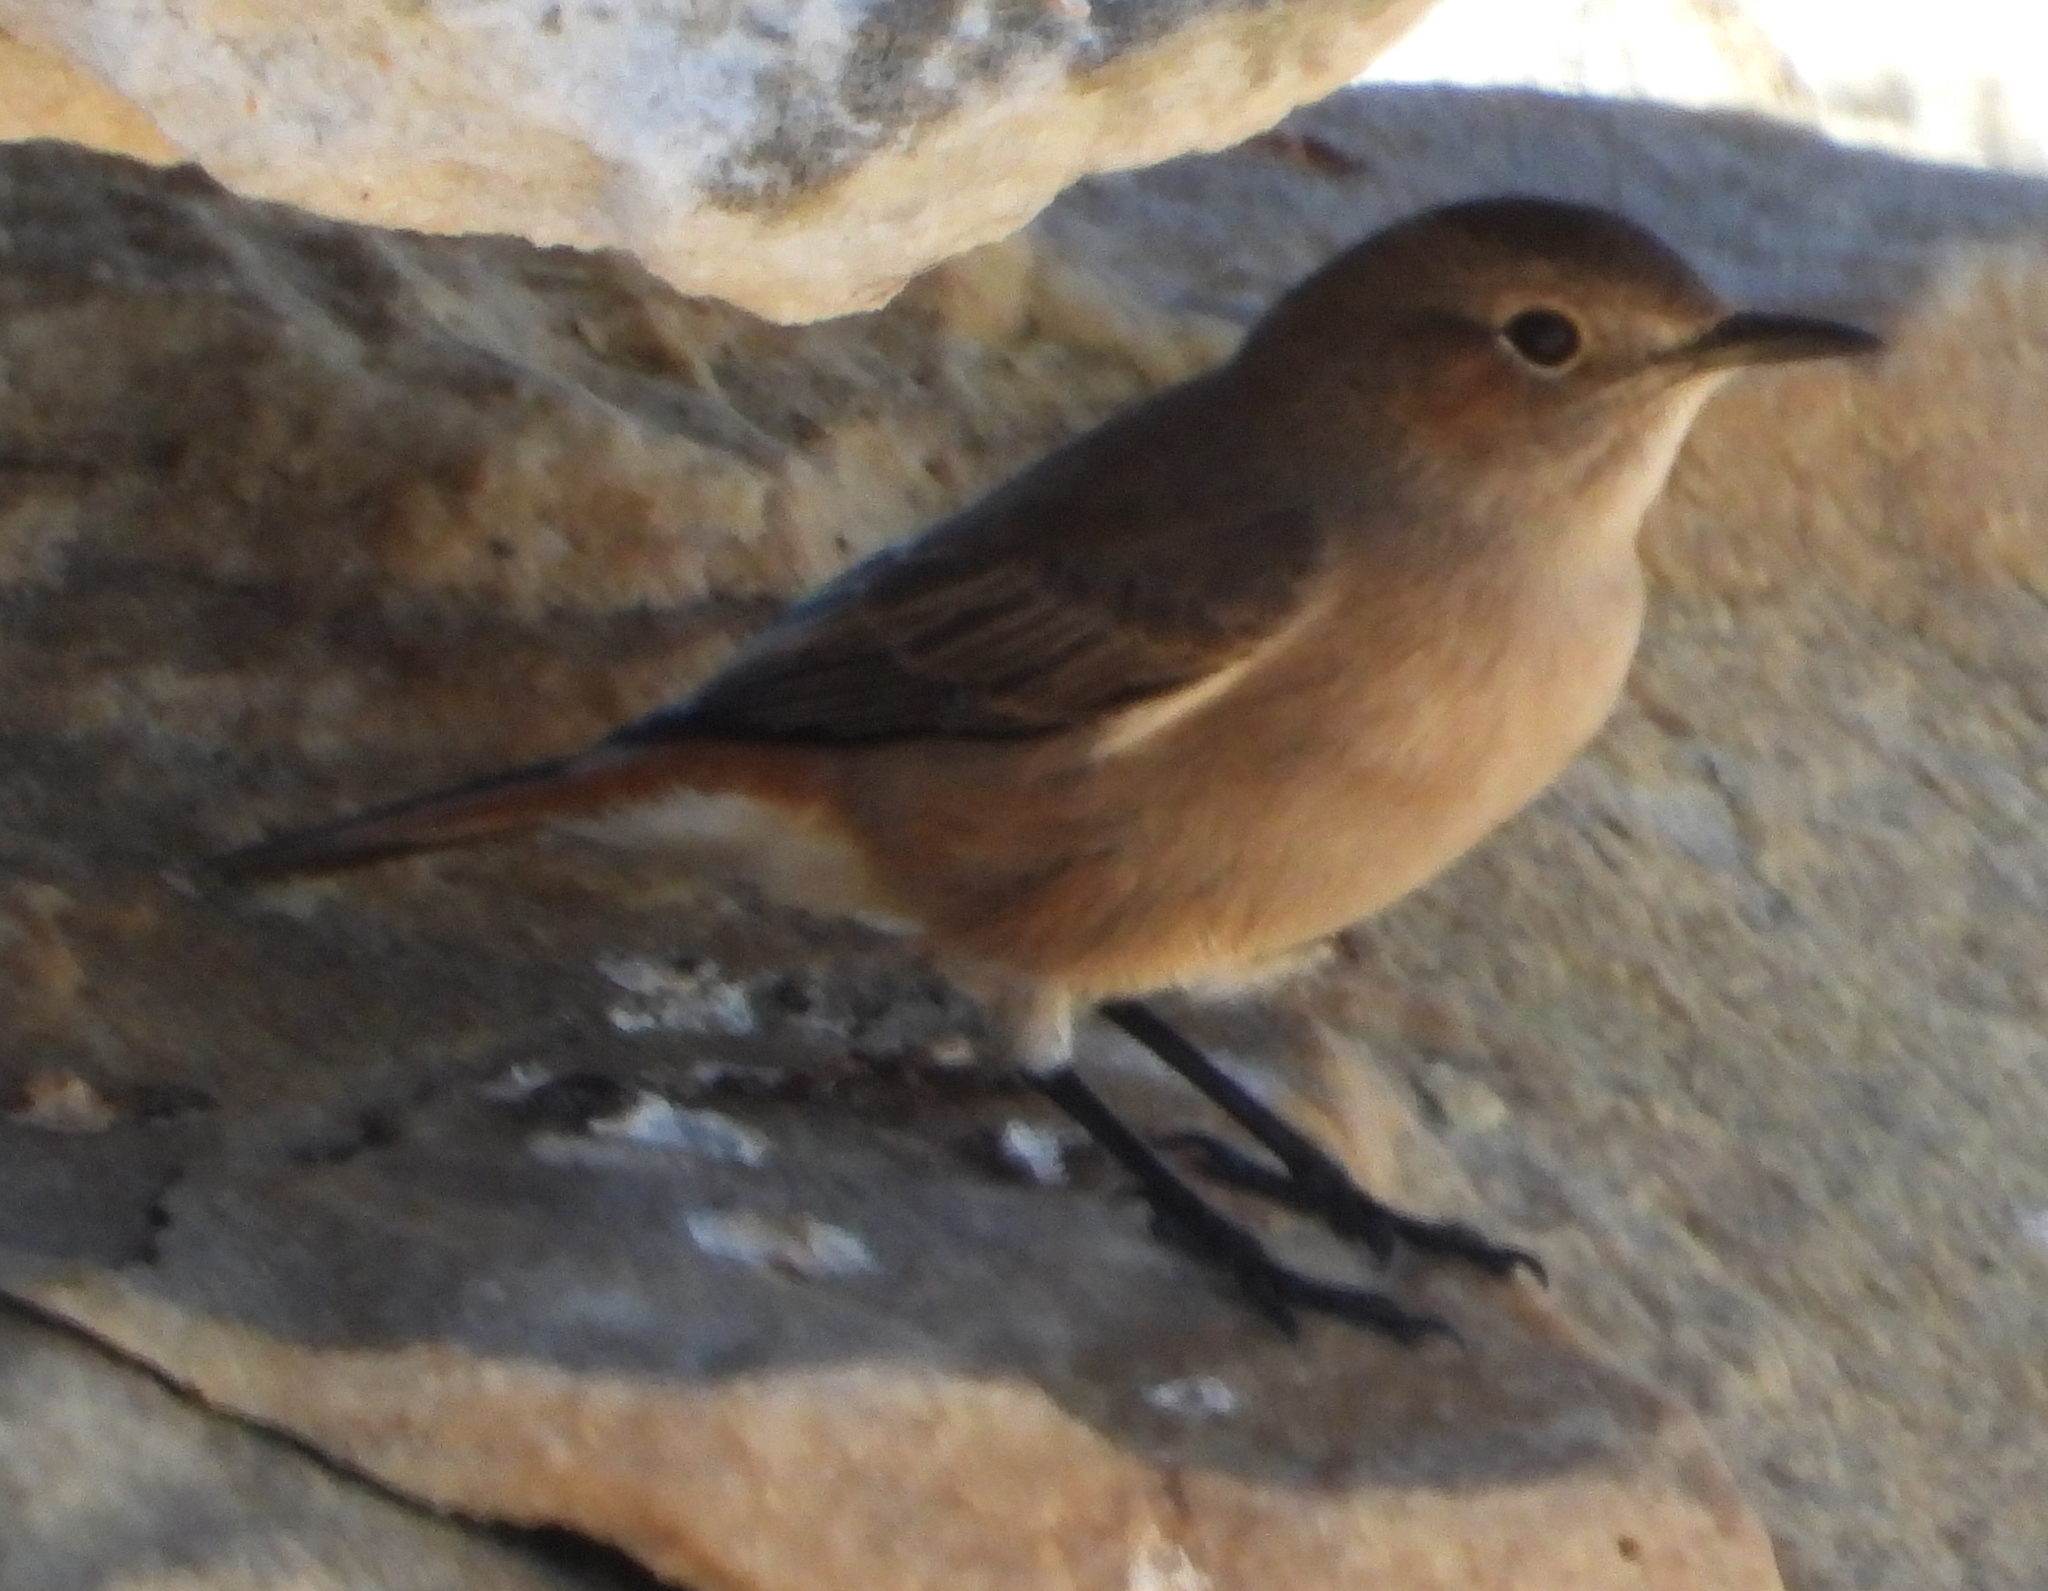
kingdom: Animalia
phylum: Chordata
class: Aves
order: Passeriformes
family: Muscicapidae
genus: Oenanthe
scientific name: Oenanthe familiaris
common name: Familiar chat
